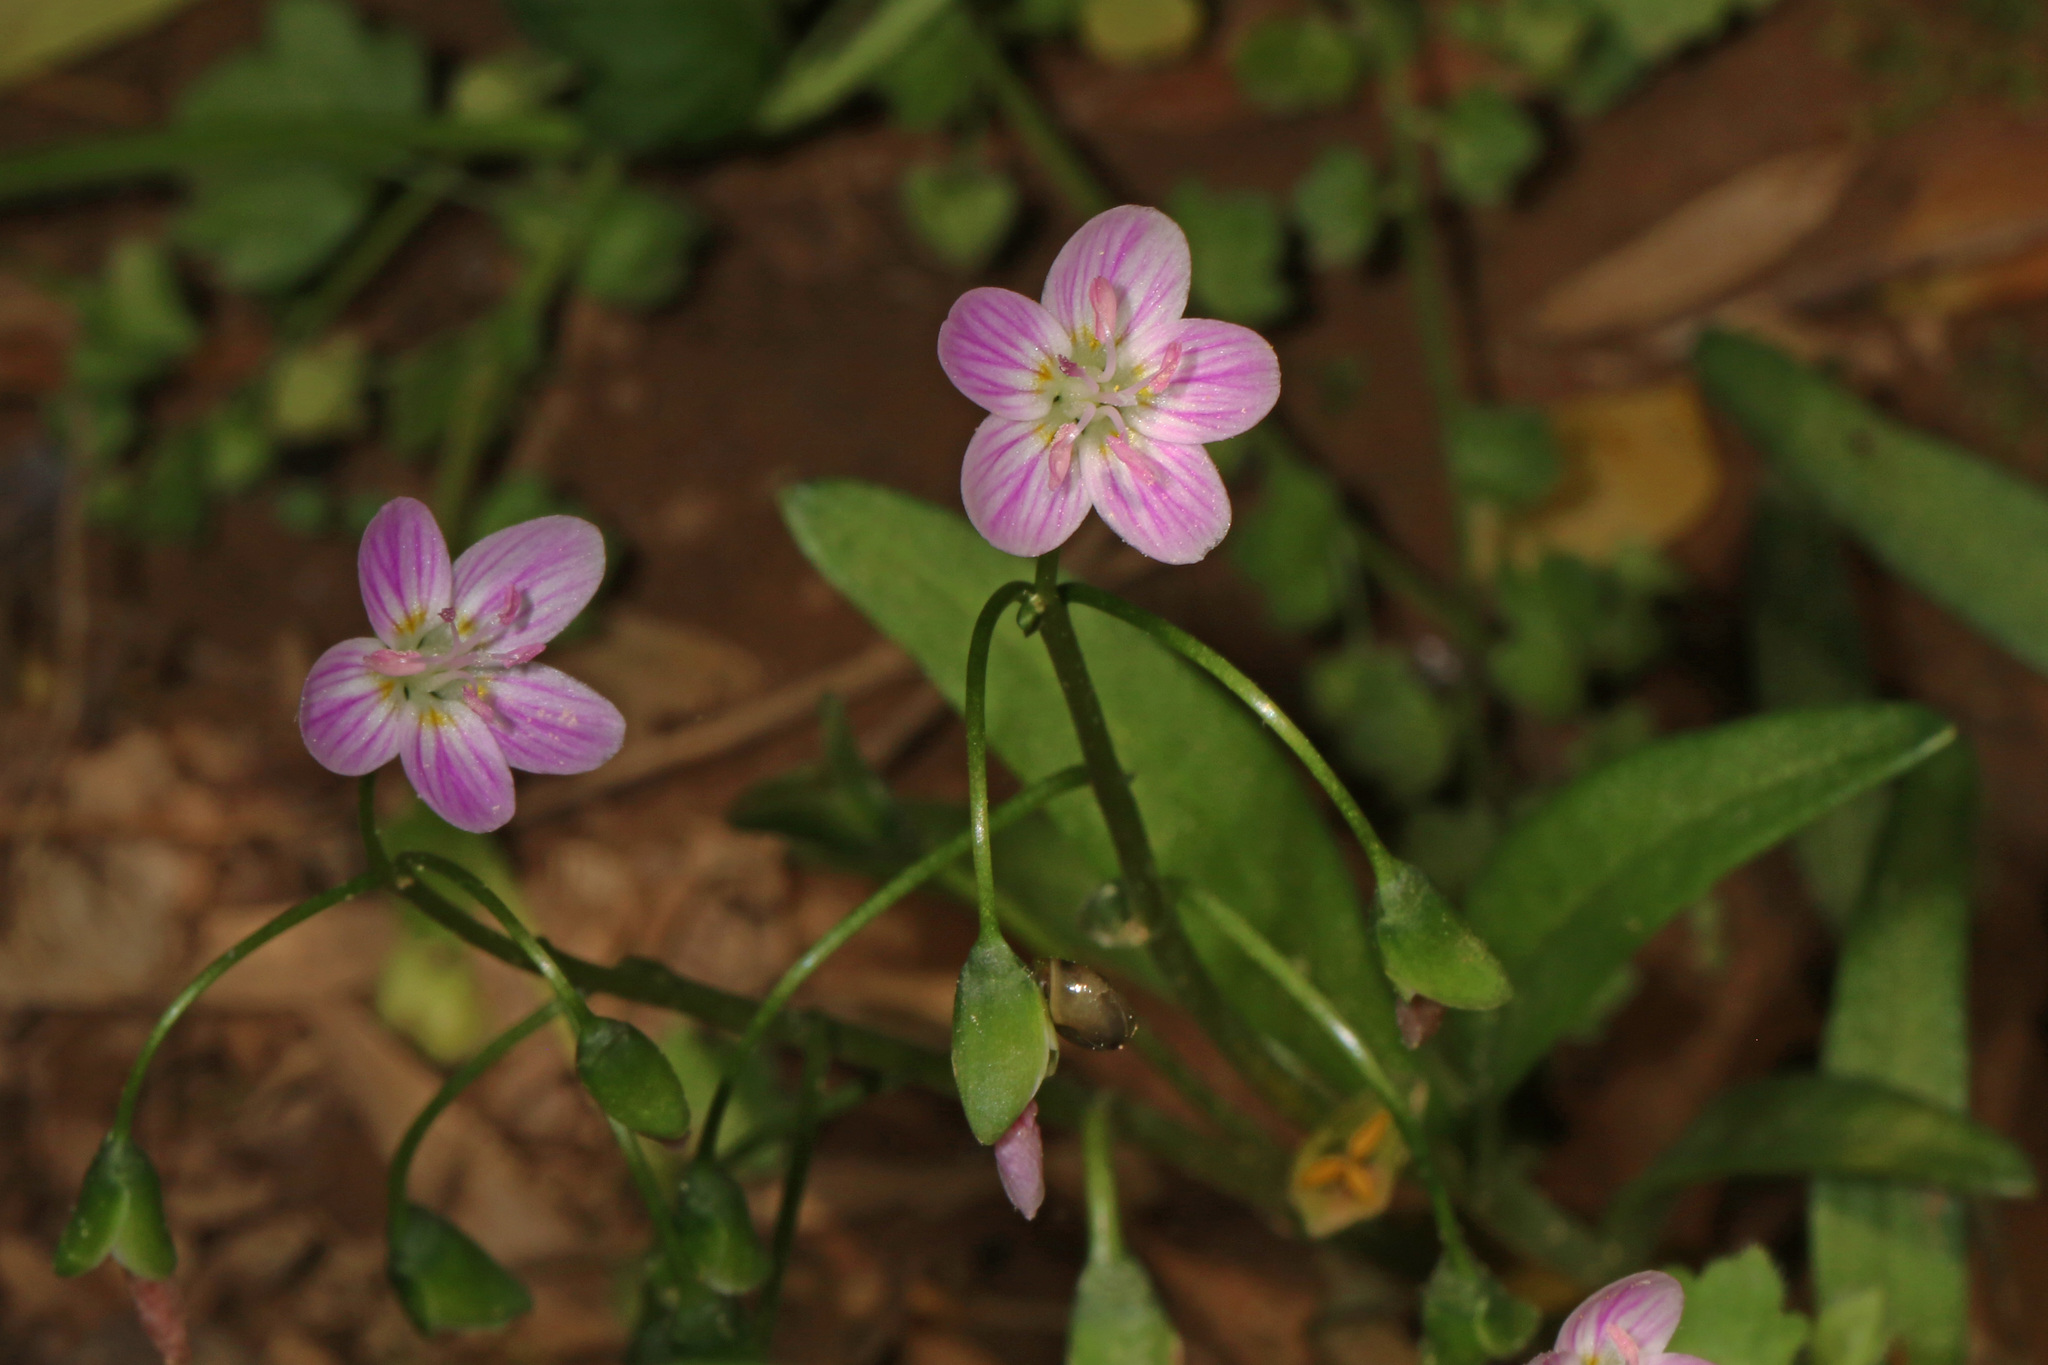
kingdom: Plantae
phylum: Tracheophyta
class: Magnoliopsida
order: Caryophyllales
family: Montiaceae
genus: Claytonia
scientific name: Claytonia virginica
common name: Virginia springbeauty
